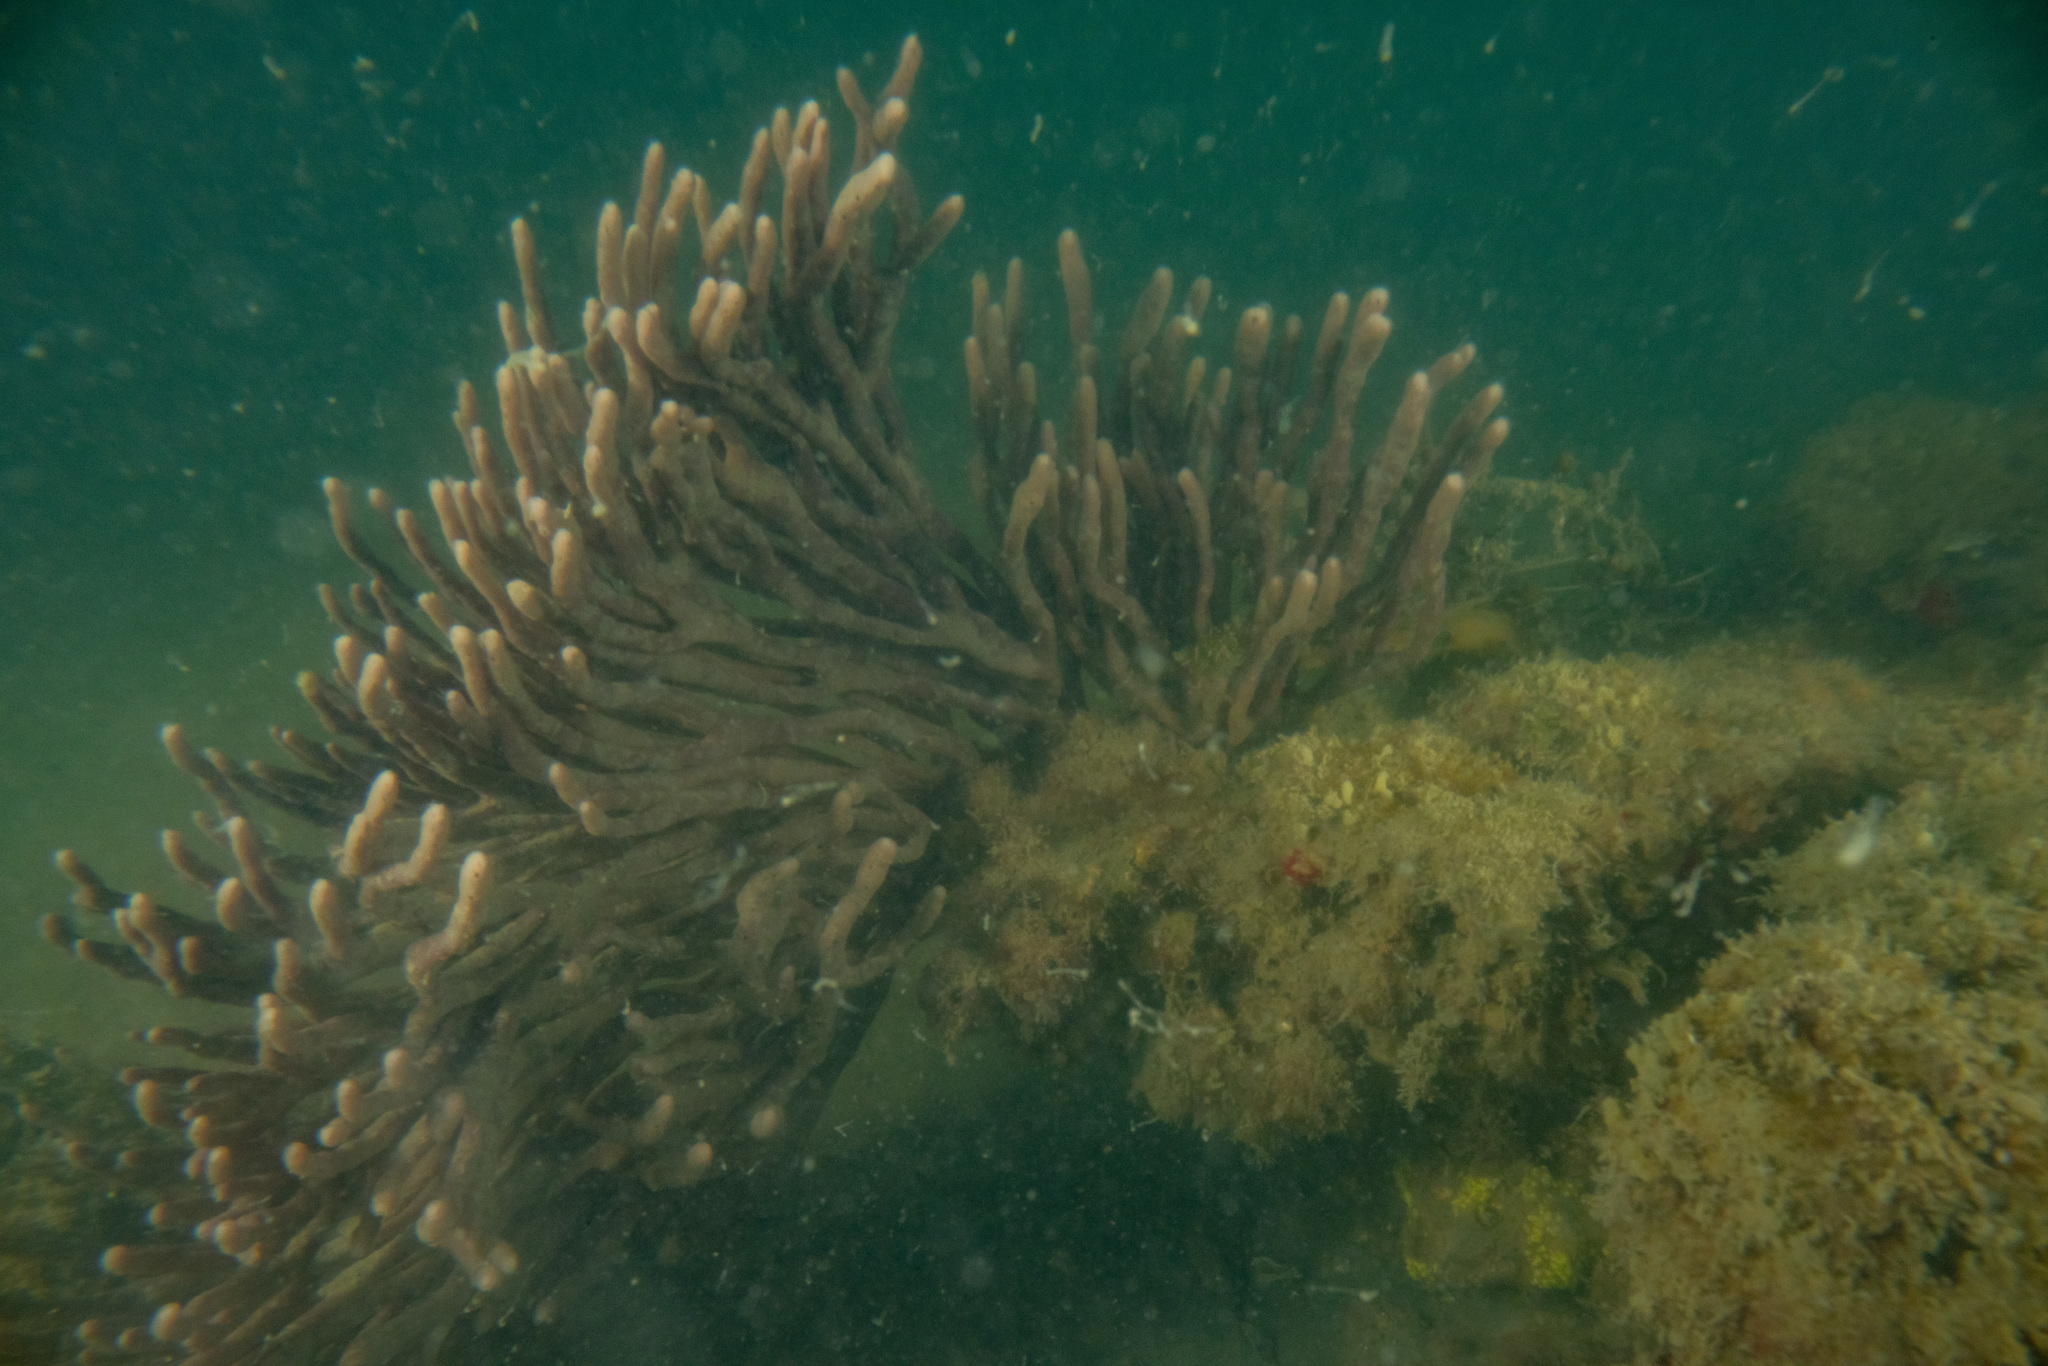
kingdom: Animalia
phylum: Porifera
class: Demospongiae
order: Haplosclerida
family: Callyspongiidae
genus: Callyspongia
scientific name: Callyspongia nuda
